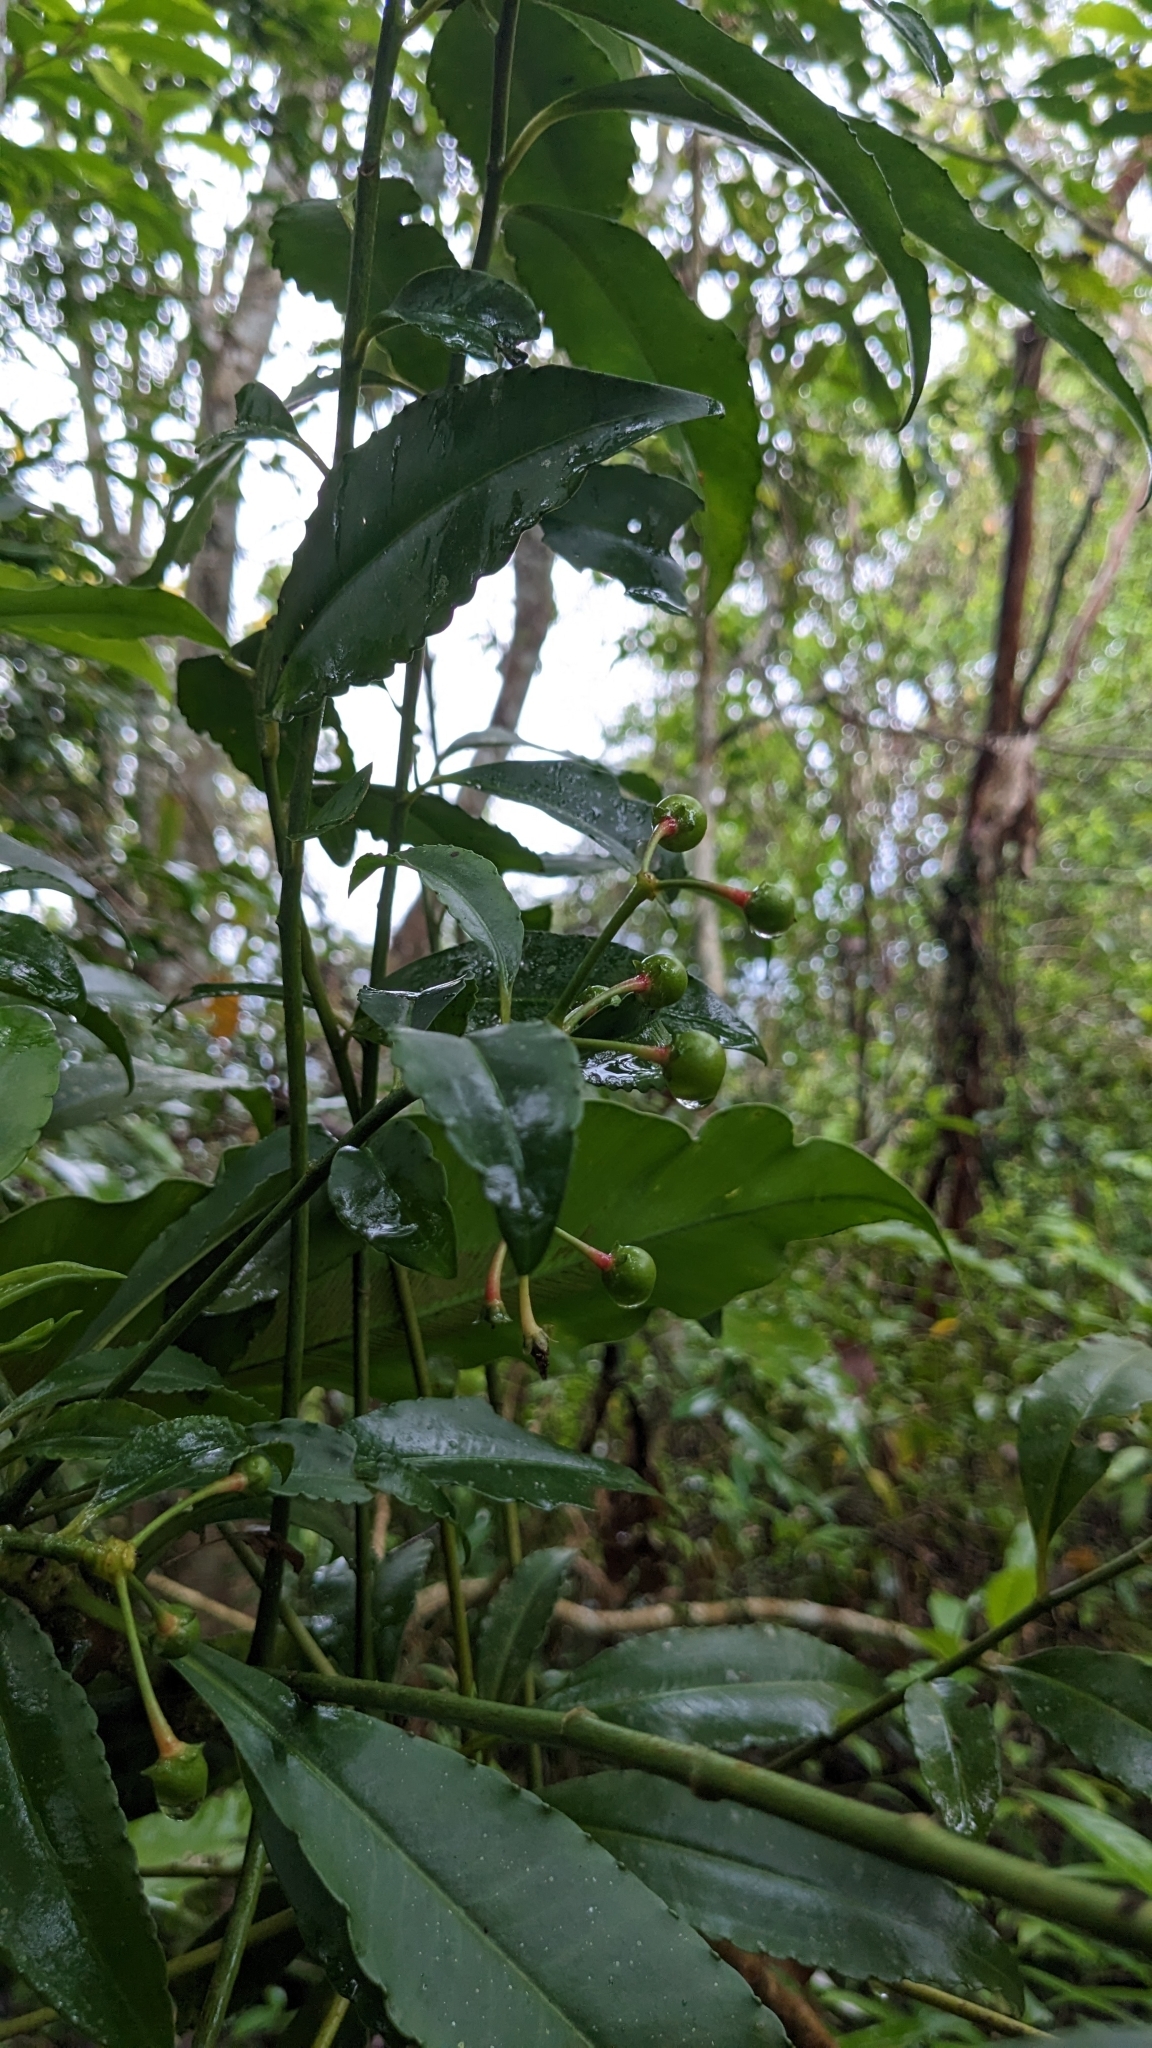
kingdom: Plantae
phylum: Tracheophyta
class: Magnoliopsida
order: Ericales
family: Primulaceae
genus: Ardisia
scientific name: Ardisia polysticta
